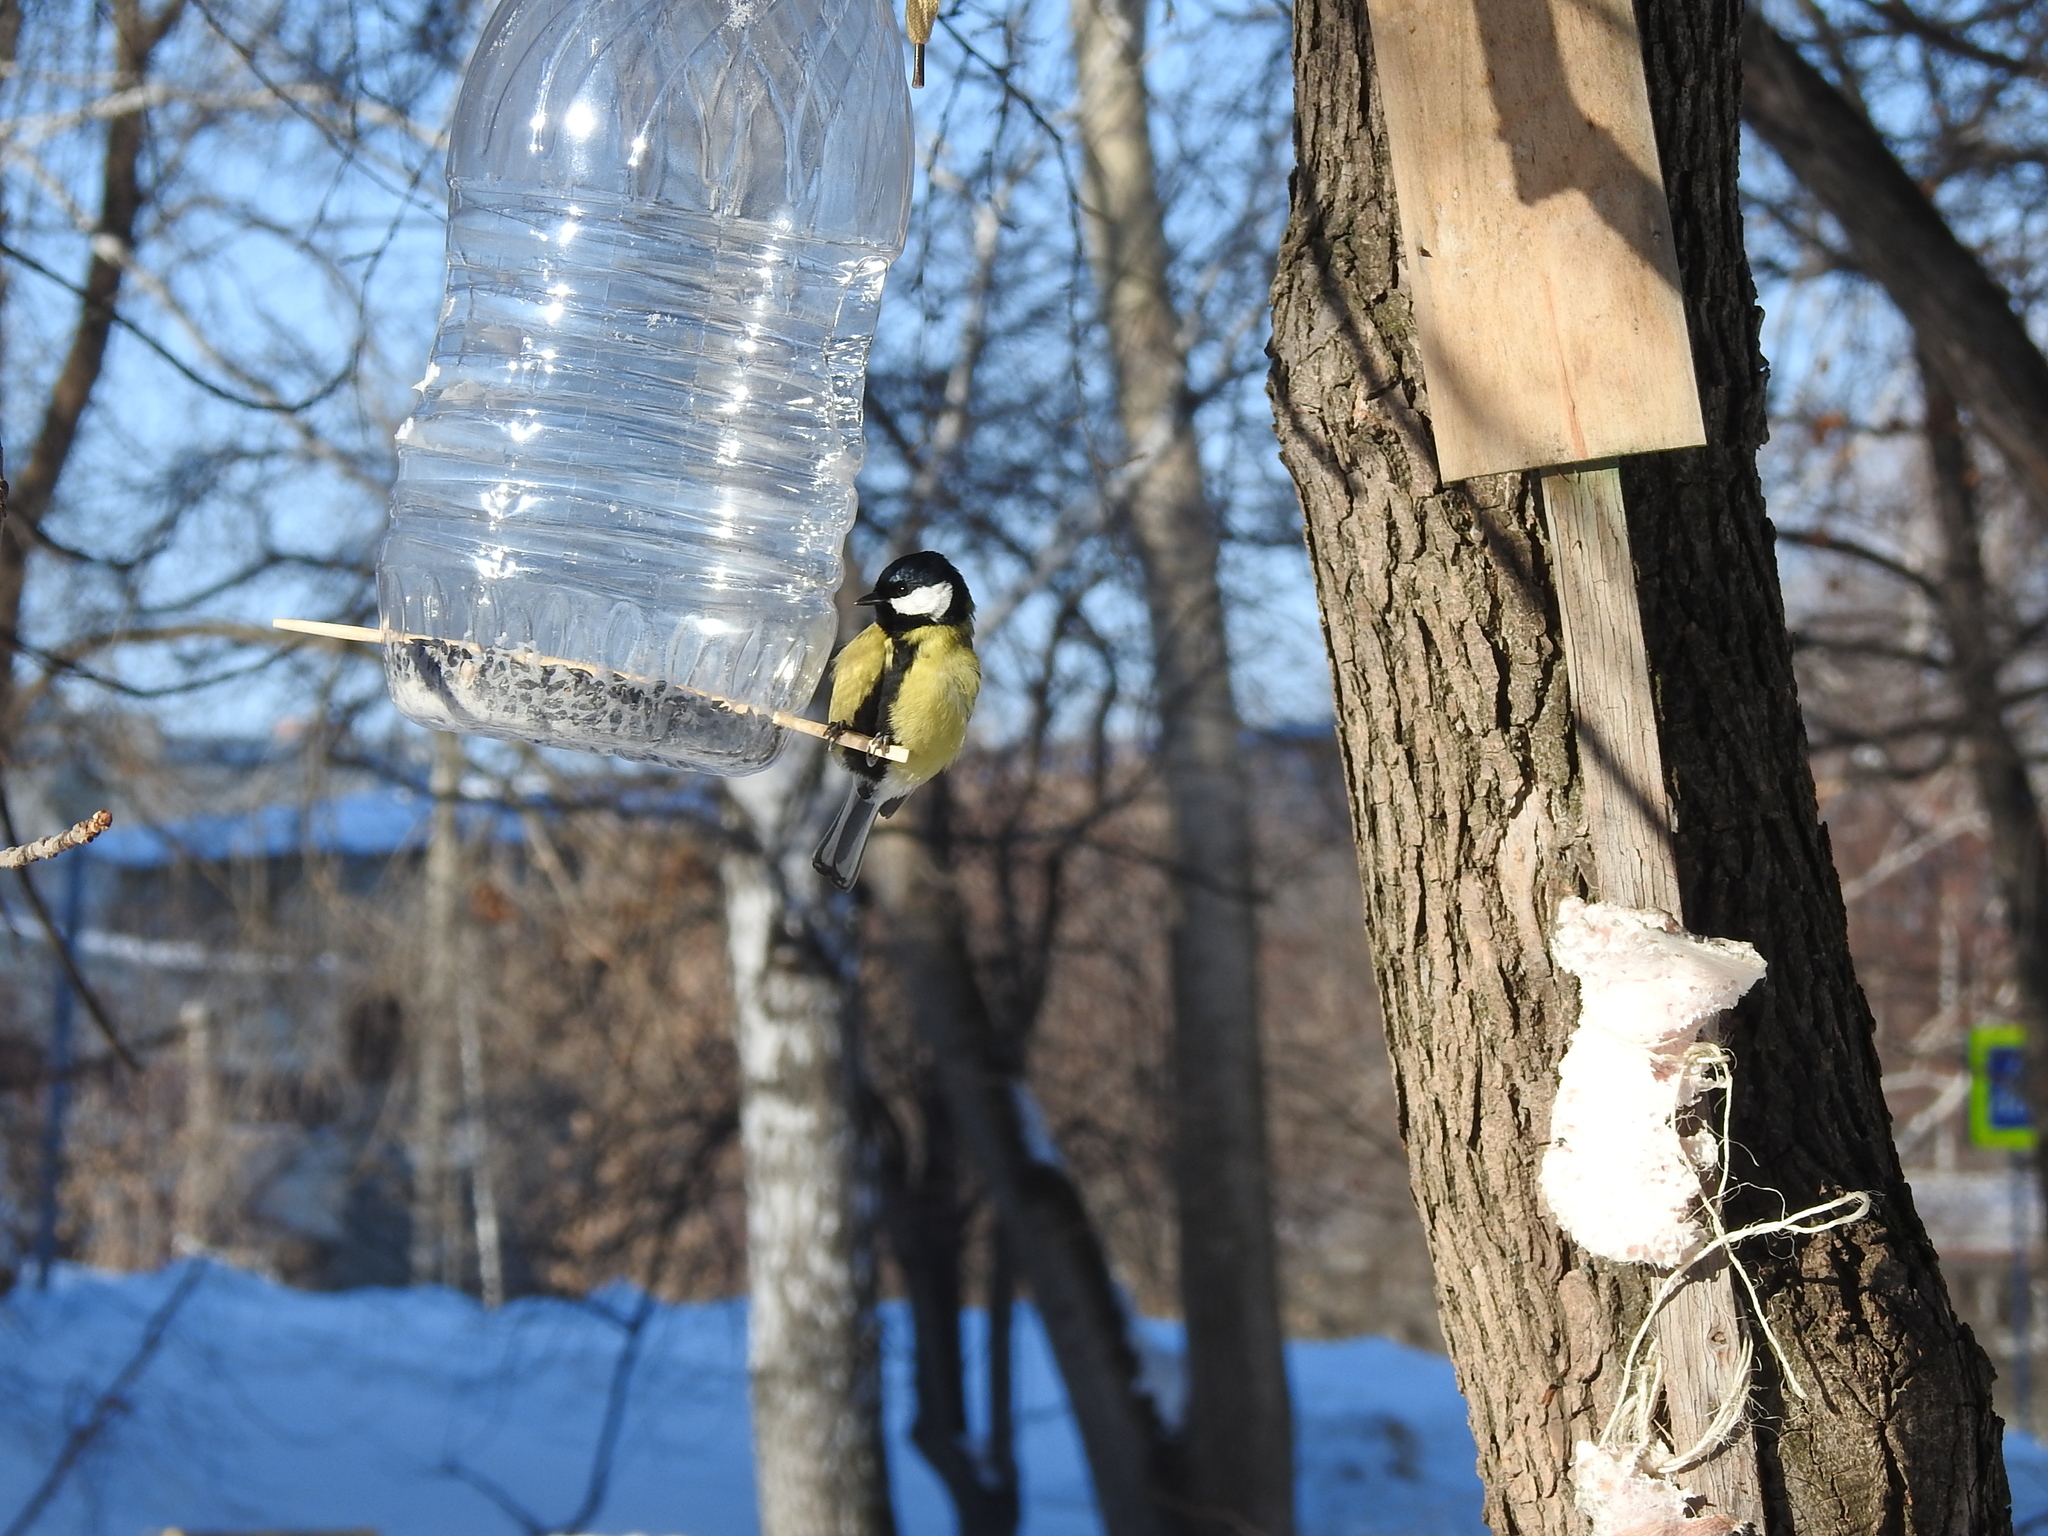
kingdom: Animalia
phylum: Chordata
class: Aves
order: Passeriformes
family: Paridae
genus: Parus
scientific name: Parus major
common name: Great tit
